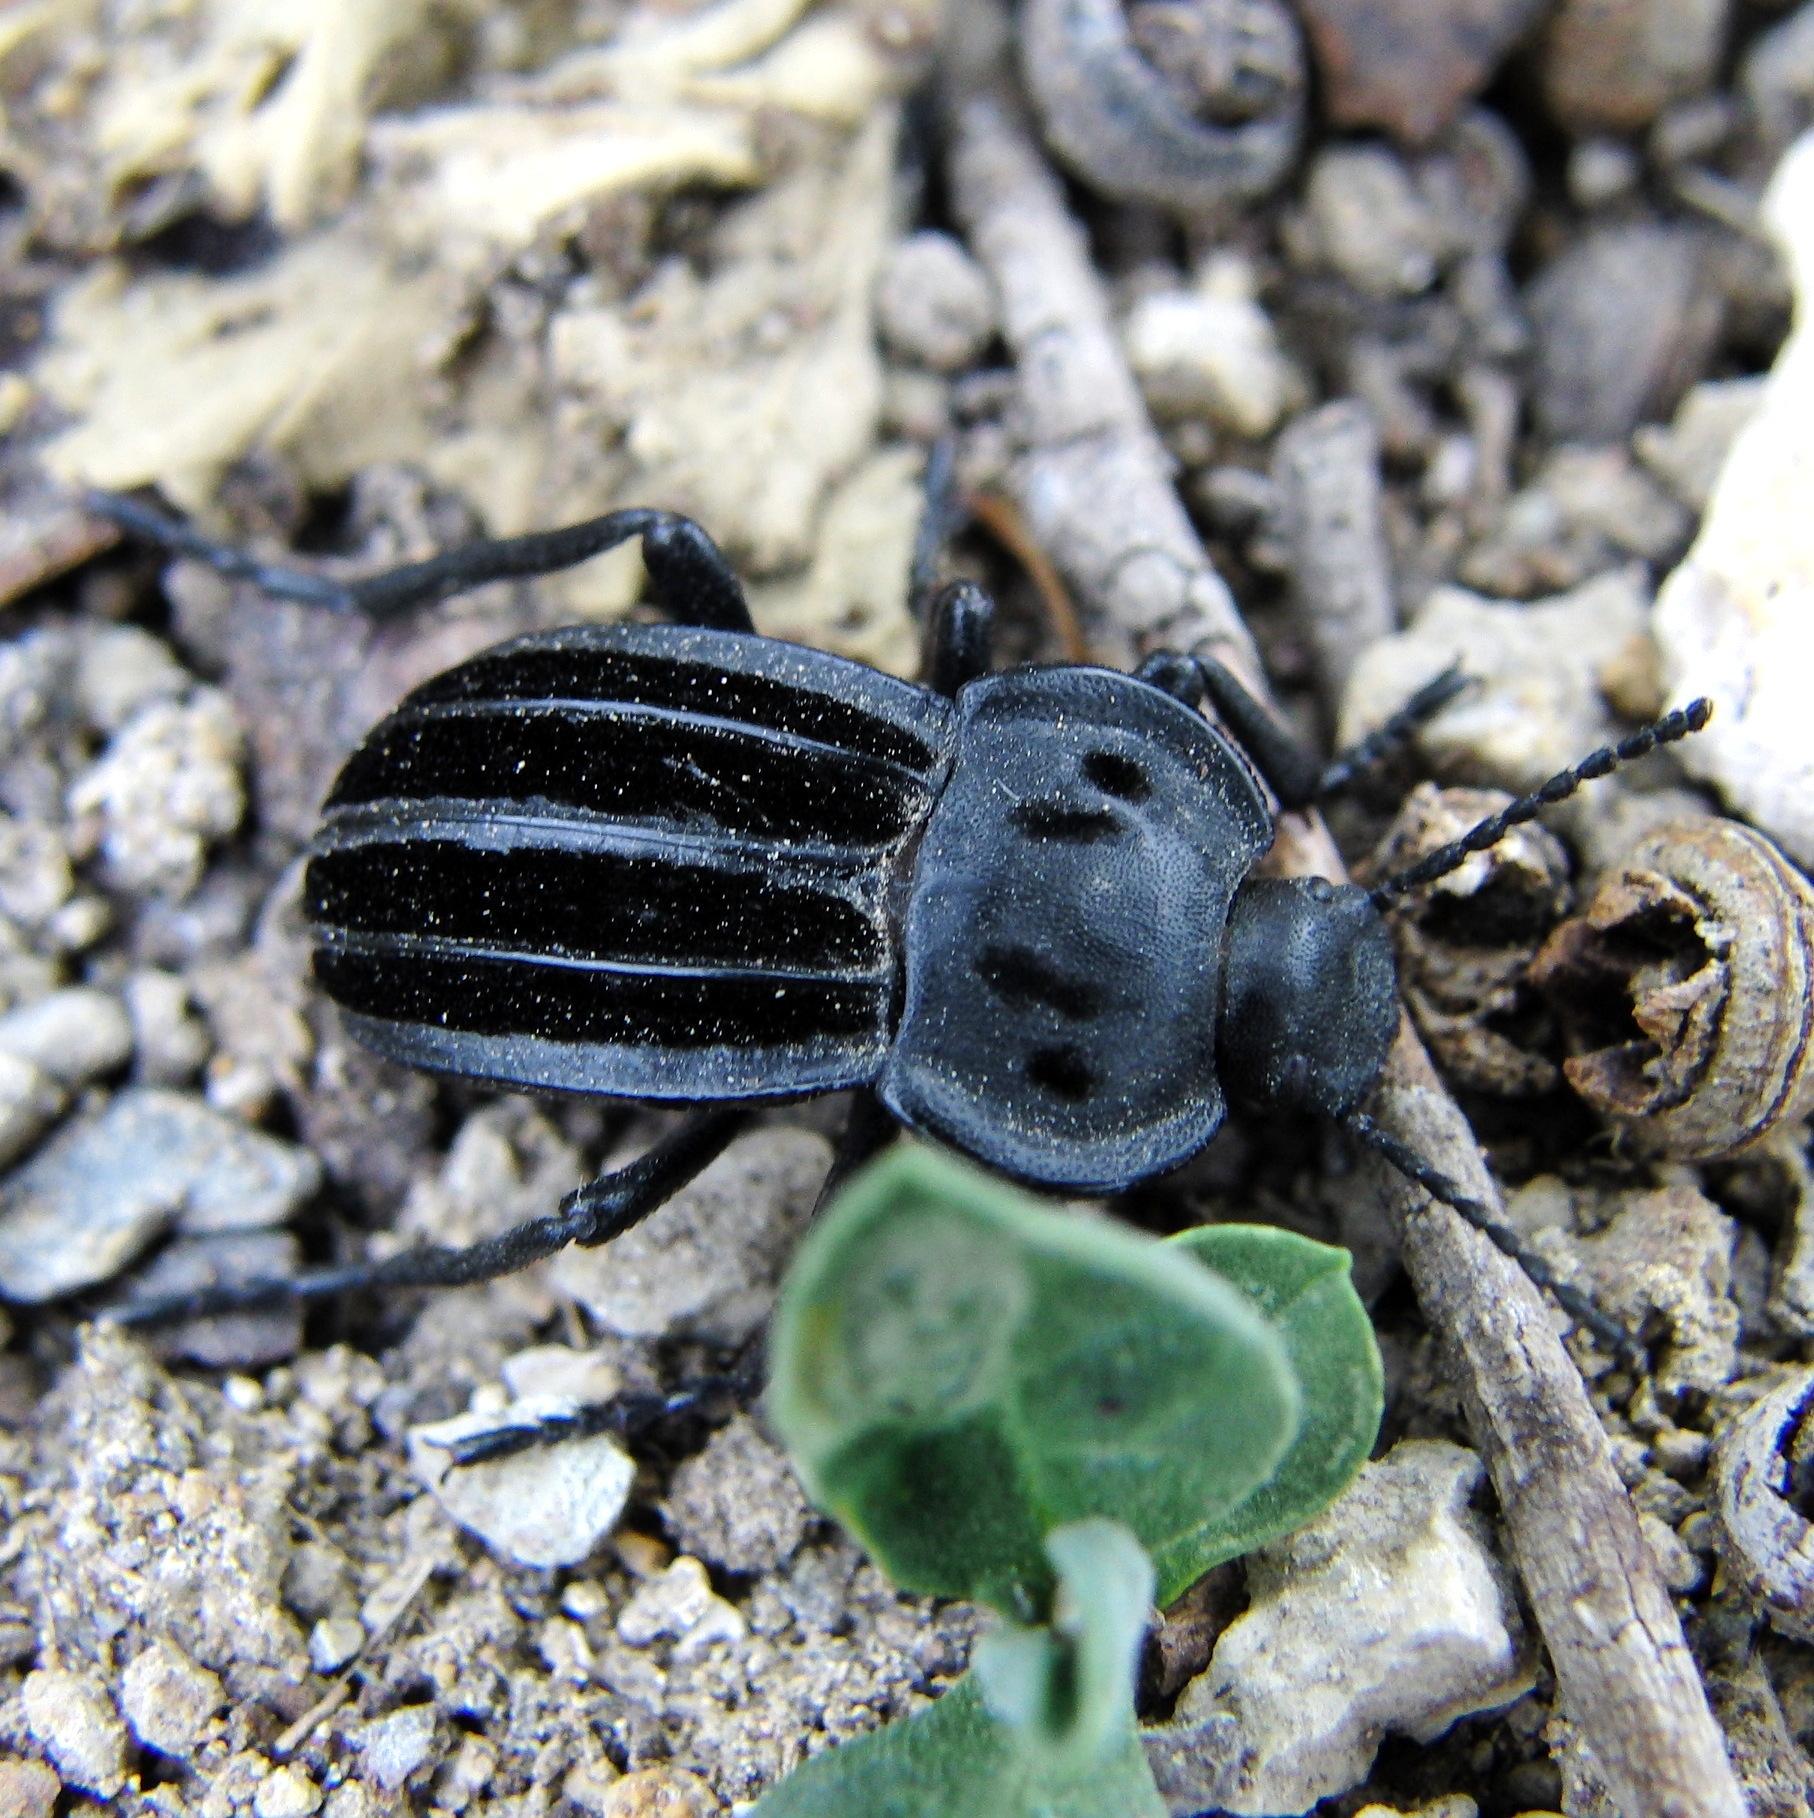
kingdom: Animalia
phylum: Arthropoda
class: Insecta
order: Coleoptera
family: Tenebrionidae
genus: Alphasida
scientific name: Alphasida holosericea
